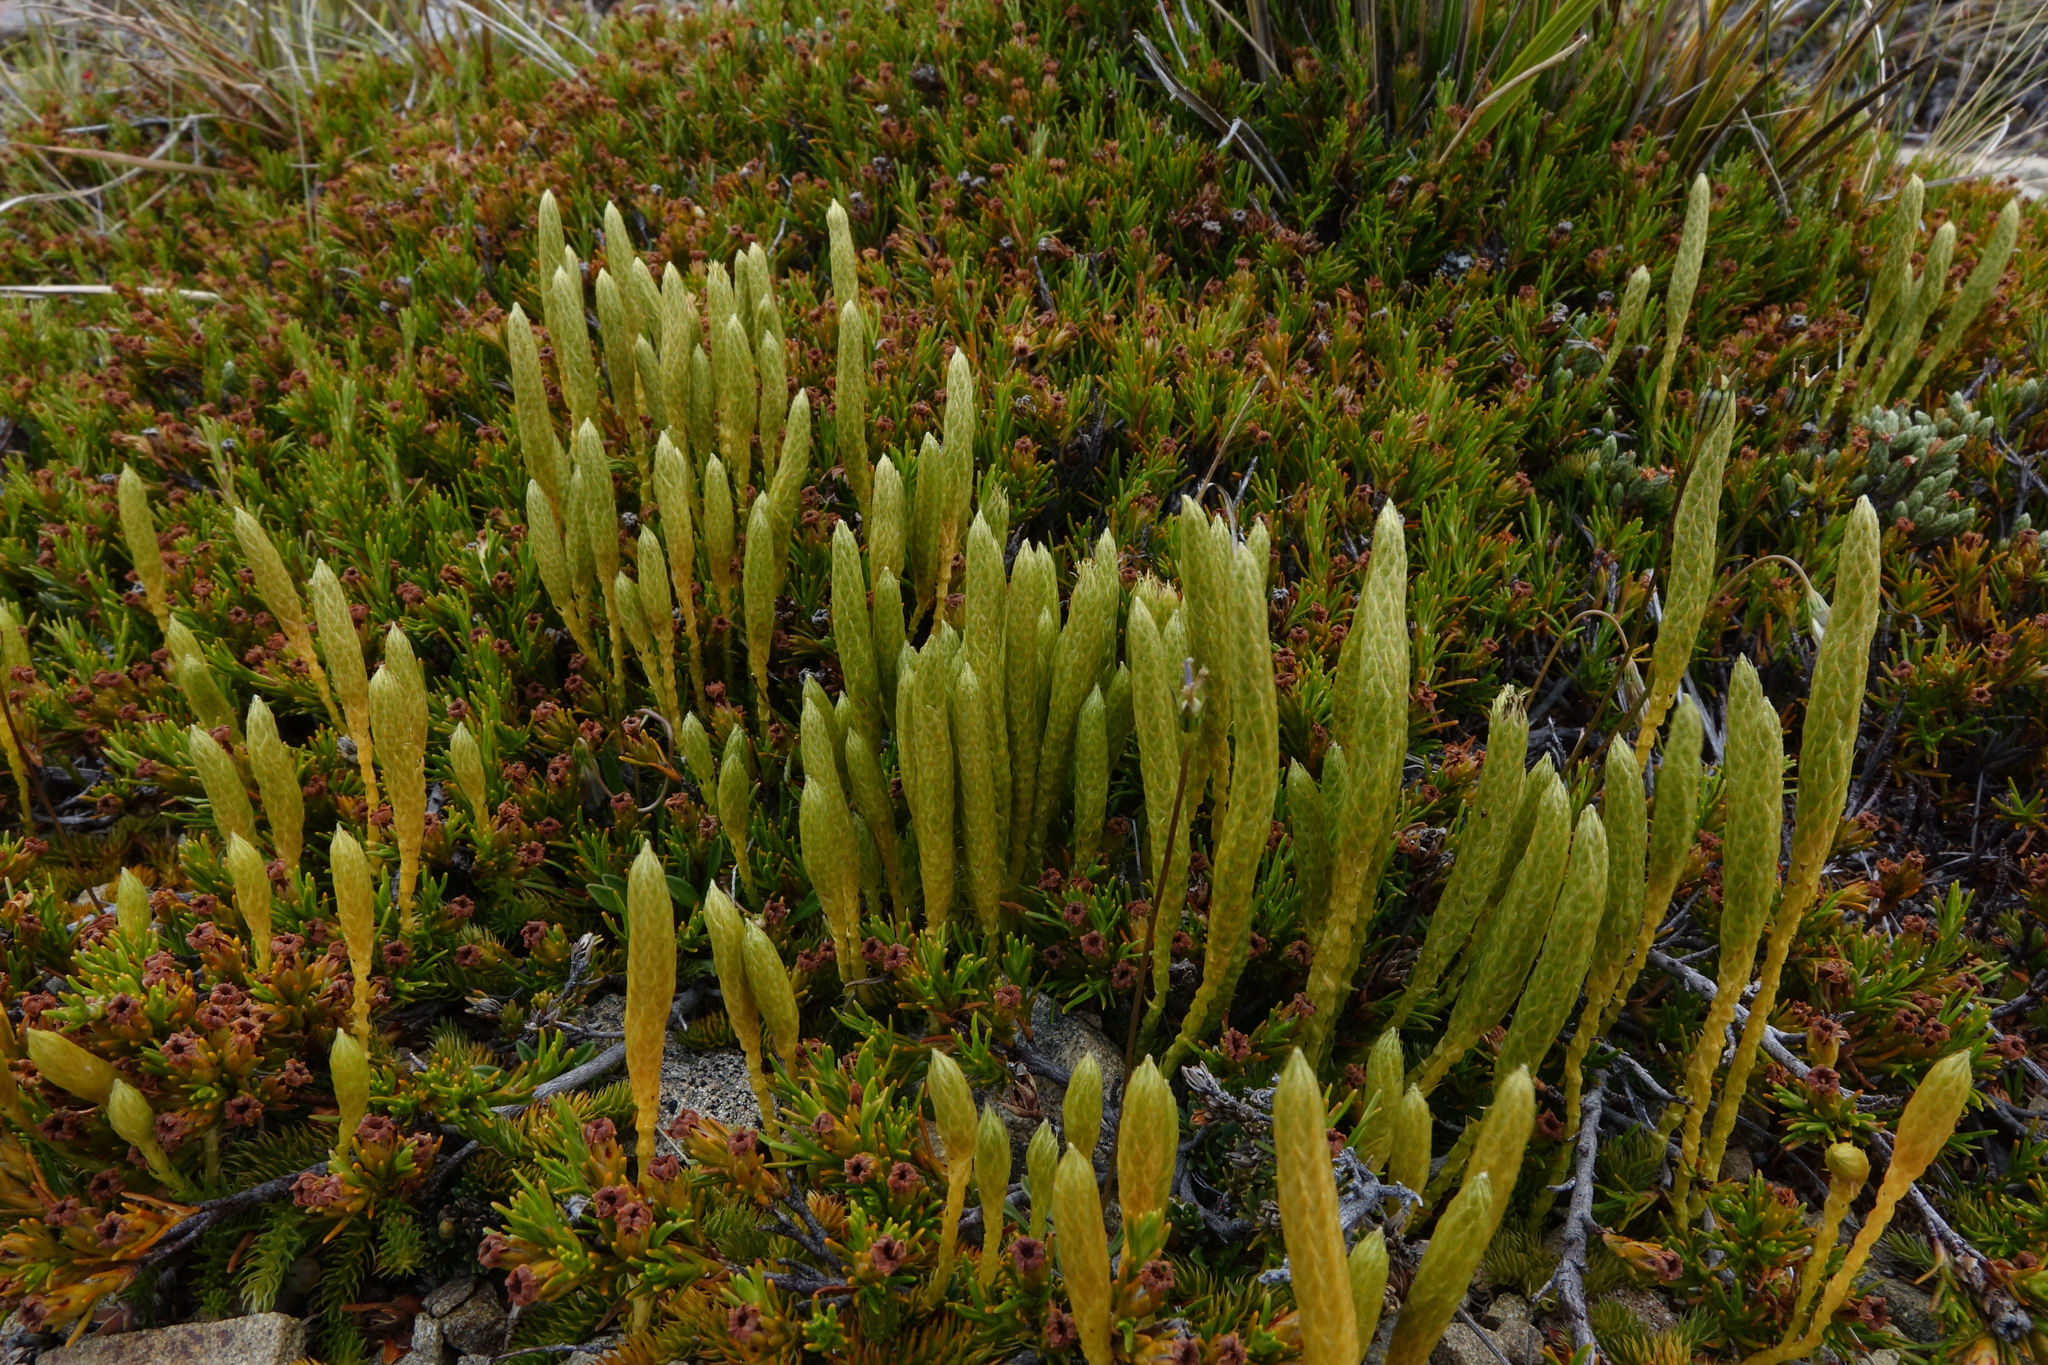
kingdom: Plantae
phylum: Tracheophyta
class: Lycopodiopsida
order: Lycopodiales
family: Lycopodiaceae
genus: Austrolycopodium
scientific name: Austrolycopodium fastigiatum
